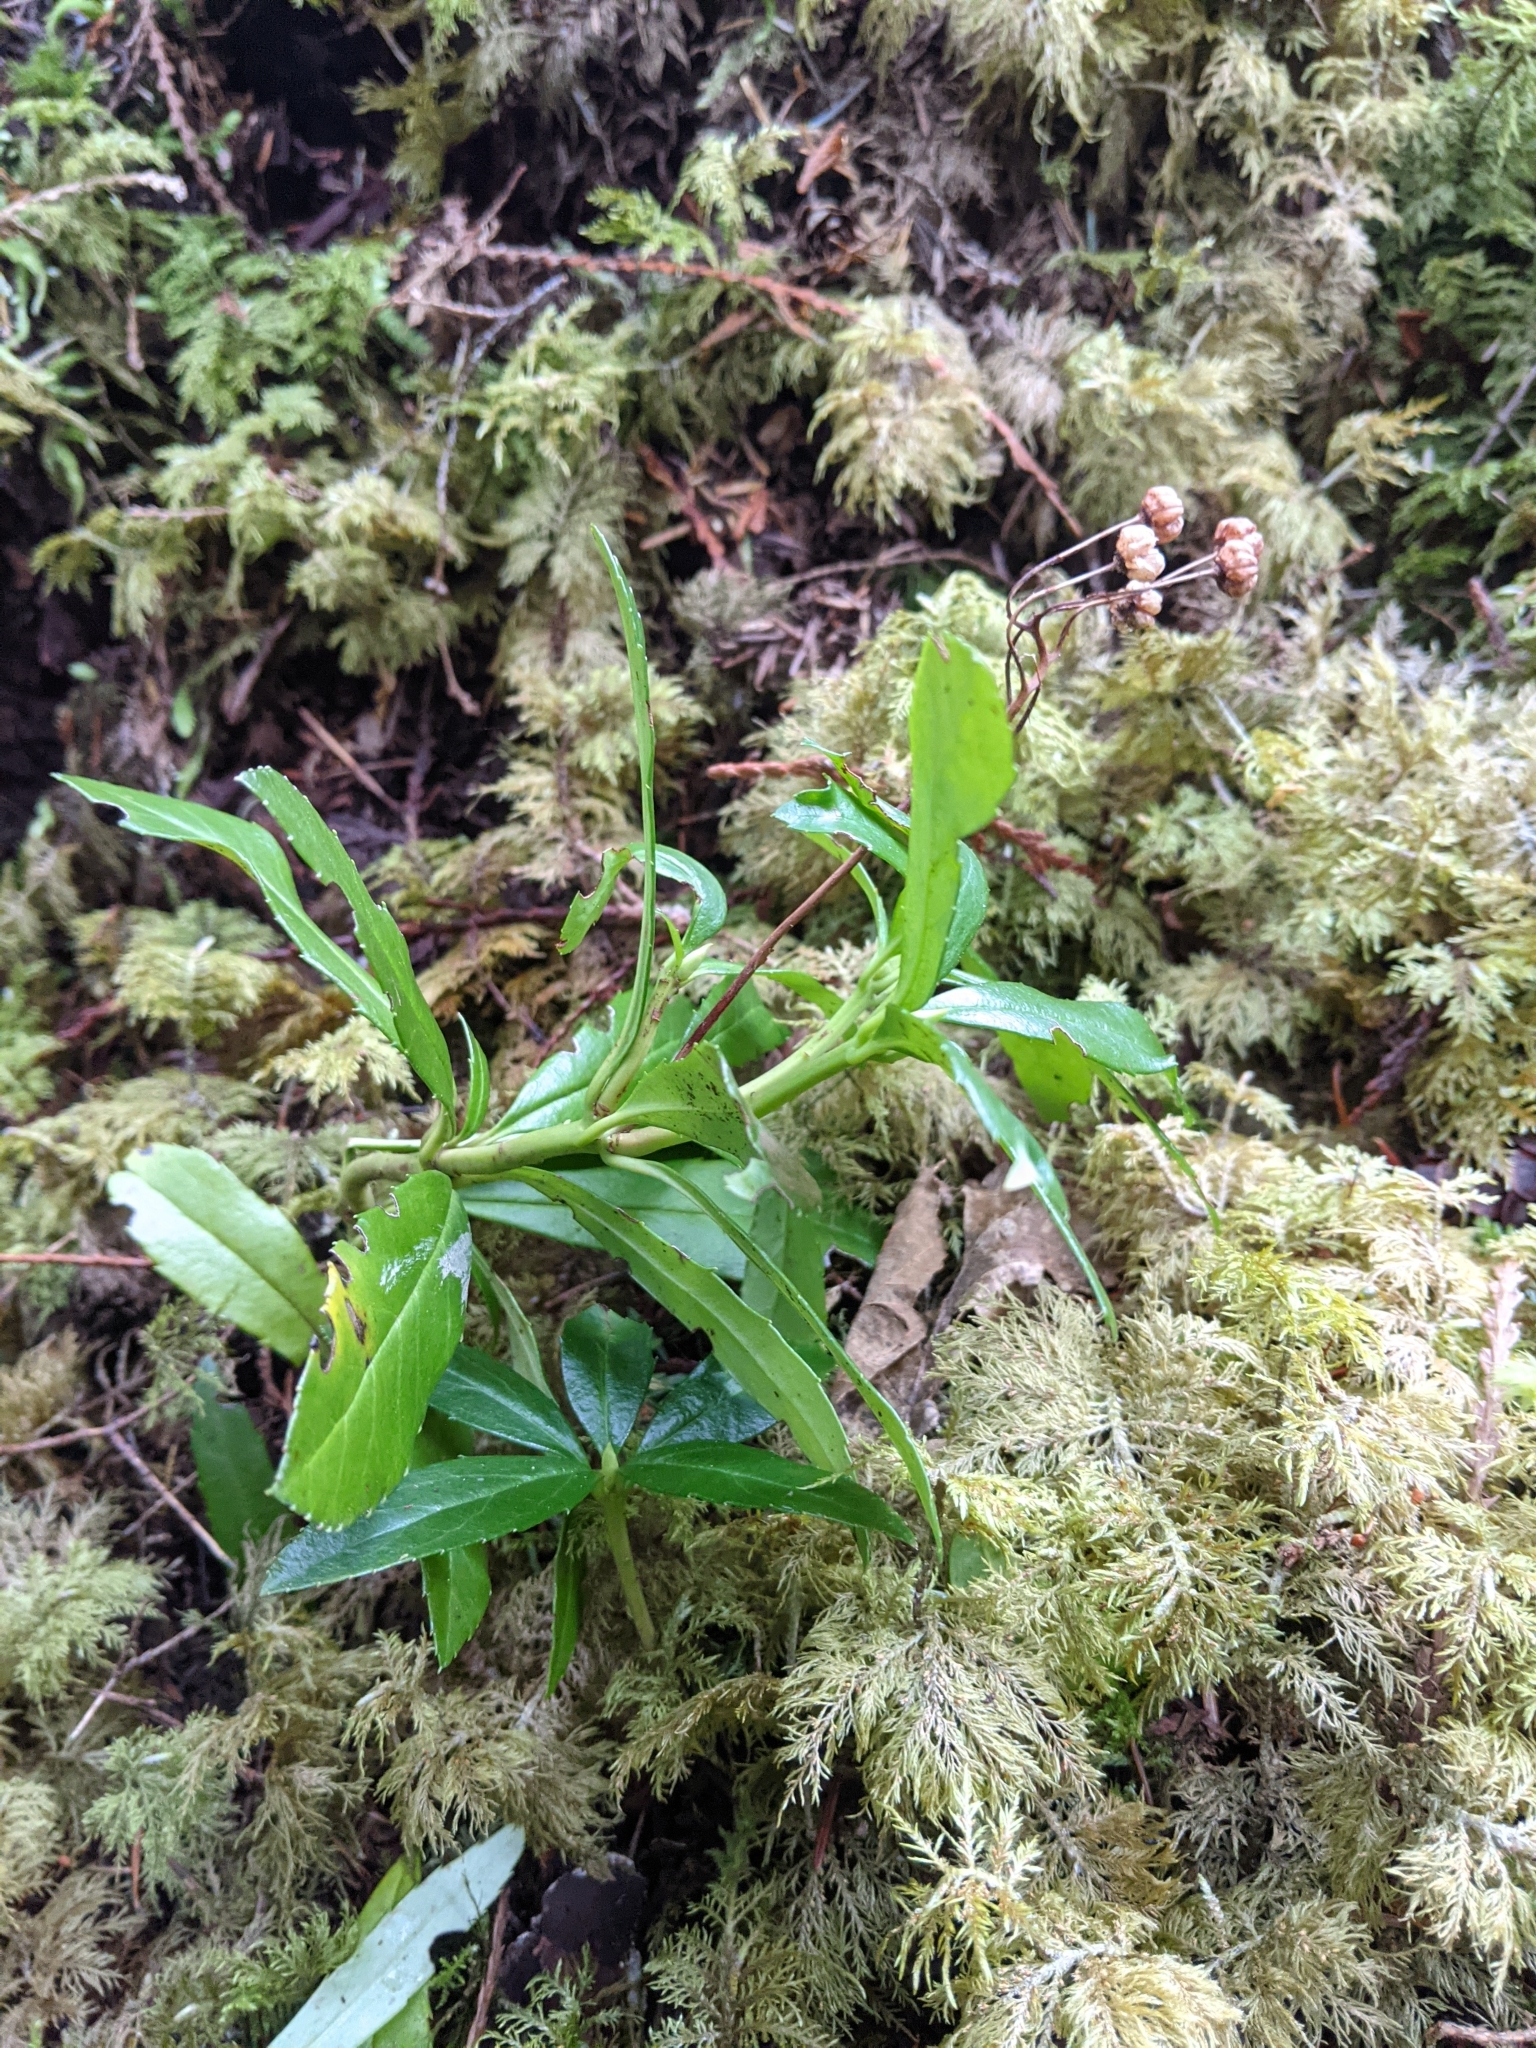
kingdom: Plantae
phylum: Tracheophyta
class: Magnoliopsida
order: Ericales
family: Ericaceae
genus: Chimaphila
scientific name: Chimaphila umbellata
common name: Pipsissewa
